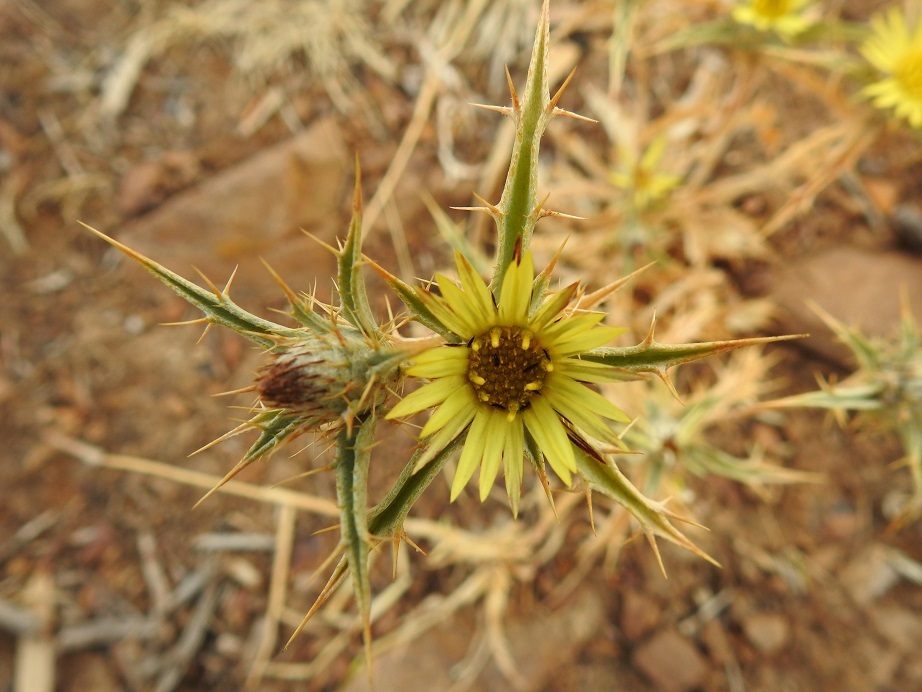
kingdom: Plantae
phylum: Tracheophyta
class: Magnoliopsida
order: Asterales
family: Asteraceae
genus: Carlina
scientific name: Carlina racemosa
